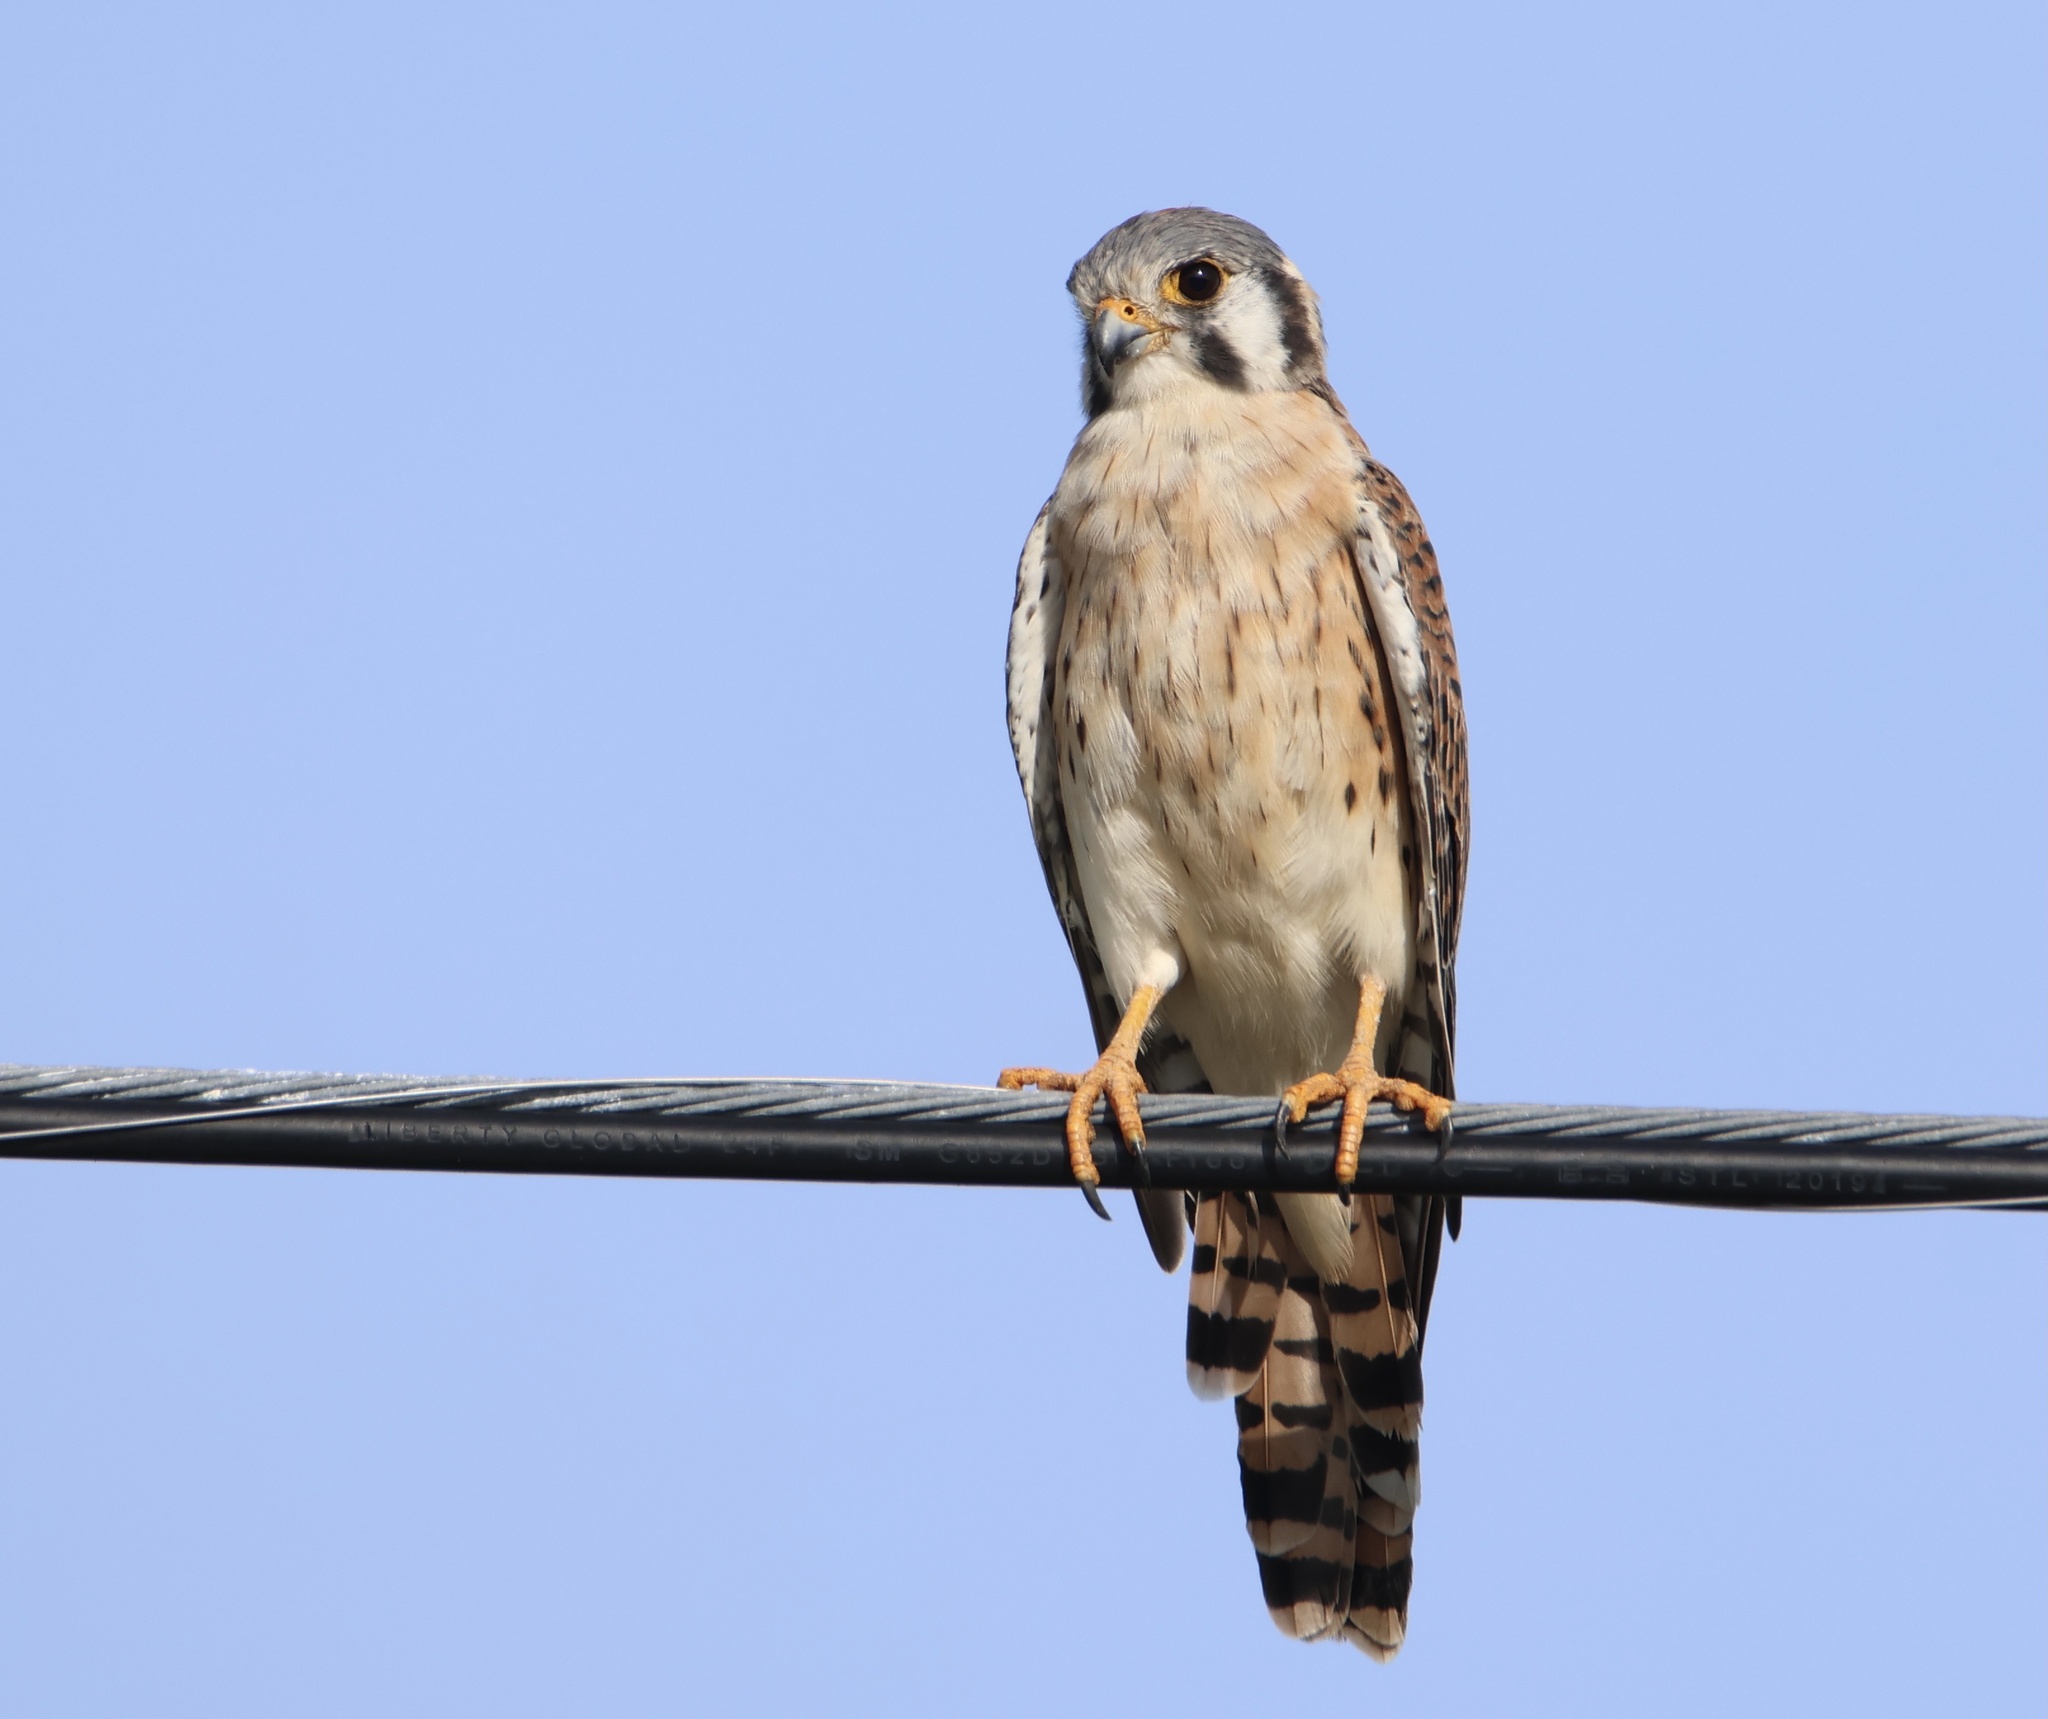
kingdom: Animalia
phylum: Chordata
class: Aves
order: Falconiformes
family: Falconidae
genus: Falco
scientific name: Falco sparverius
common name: American kestrel
